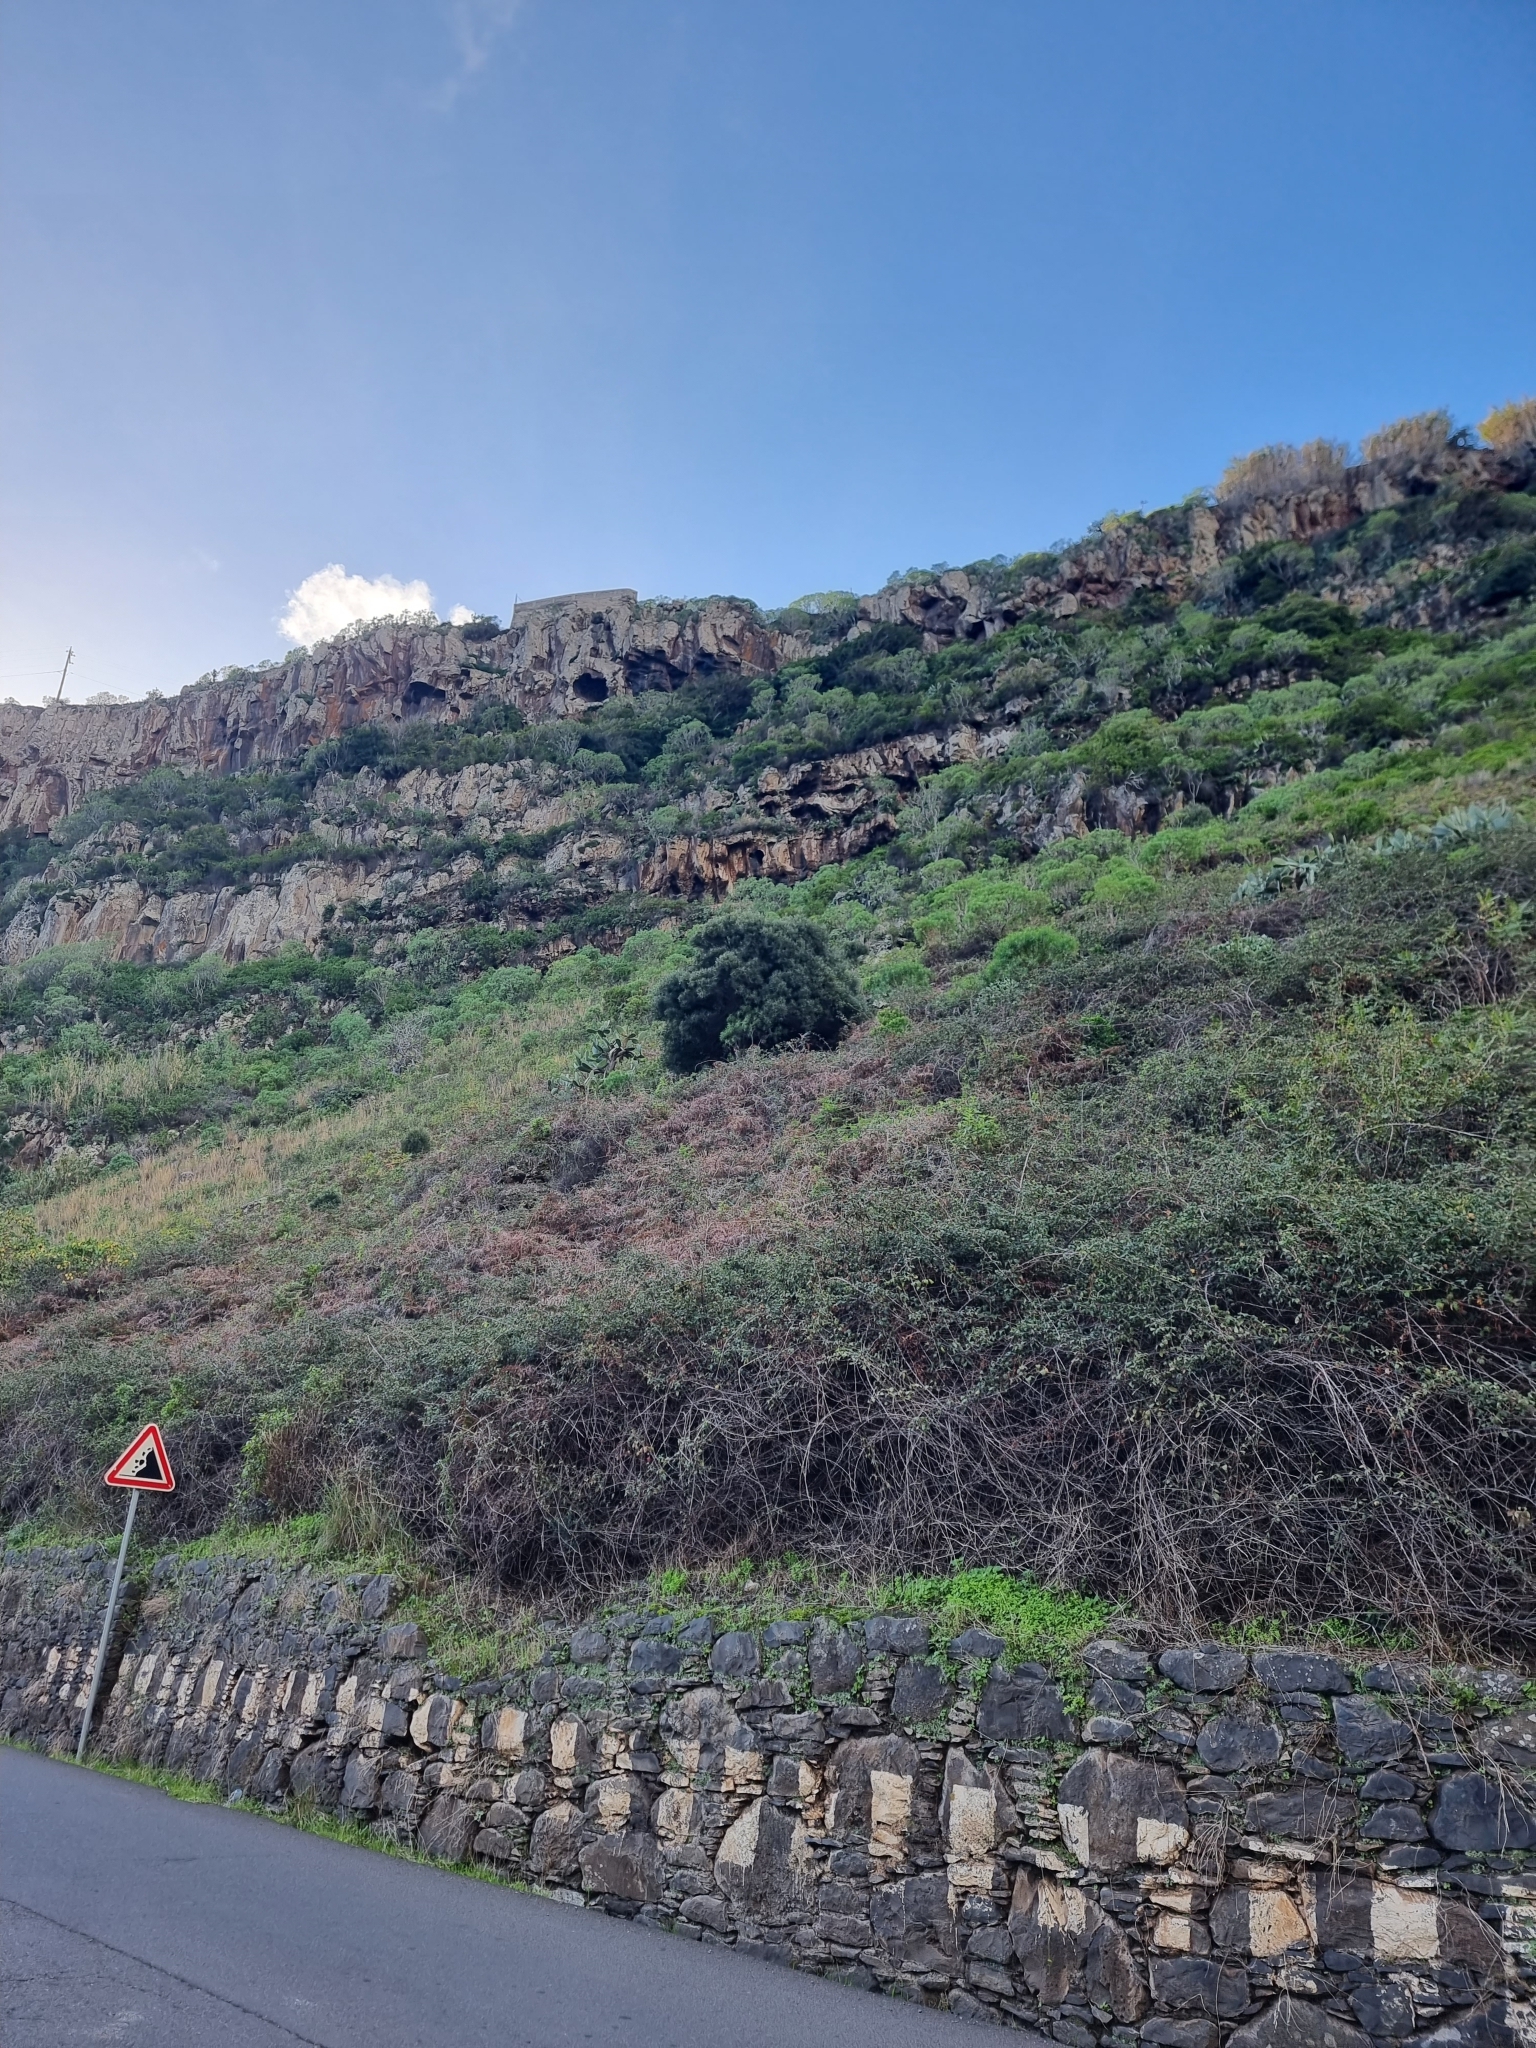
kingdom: Plantae
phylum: Tracheophyta
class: Magnoliopsida
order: Lamiales
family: Oleaceae
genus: Olea
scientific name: Olea europaea
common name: Olive
